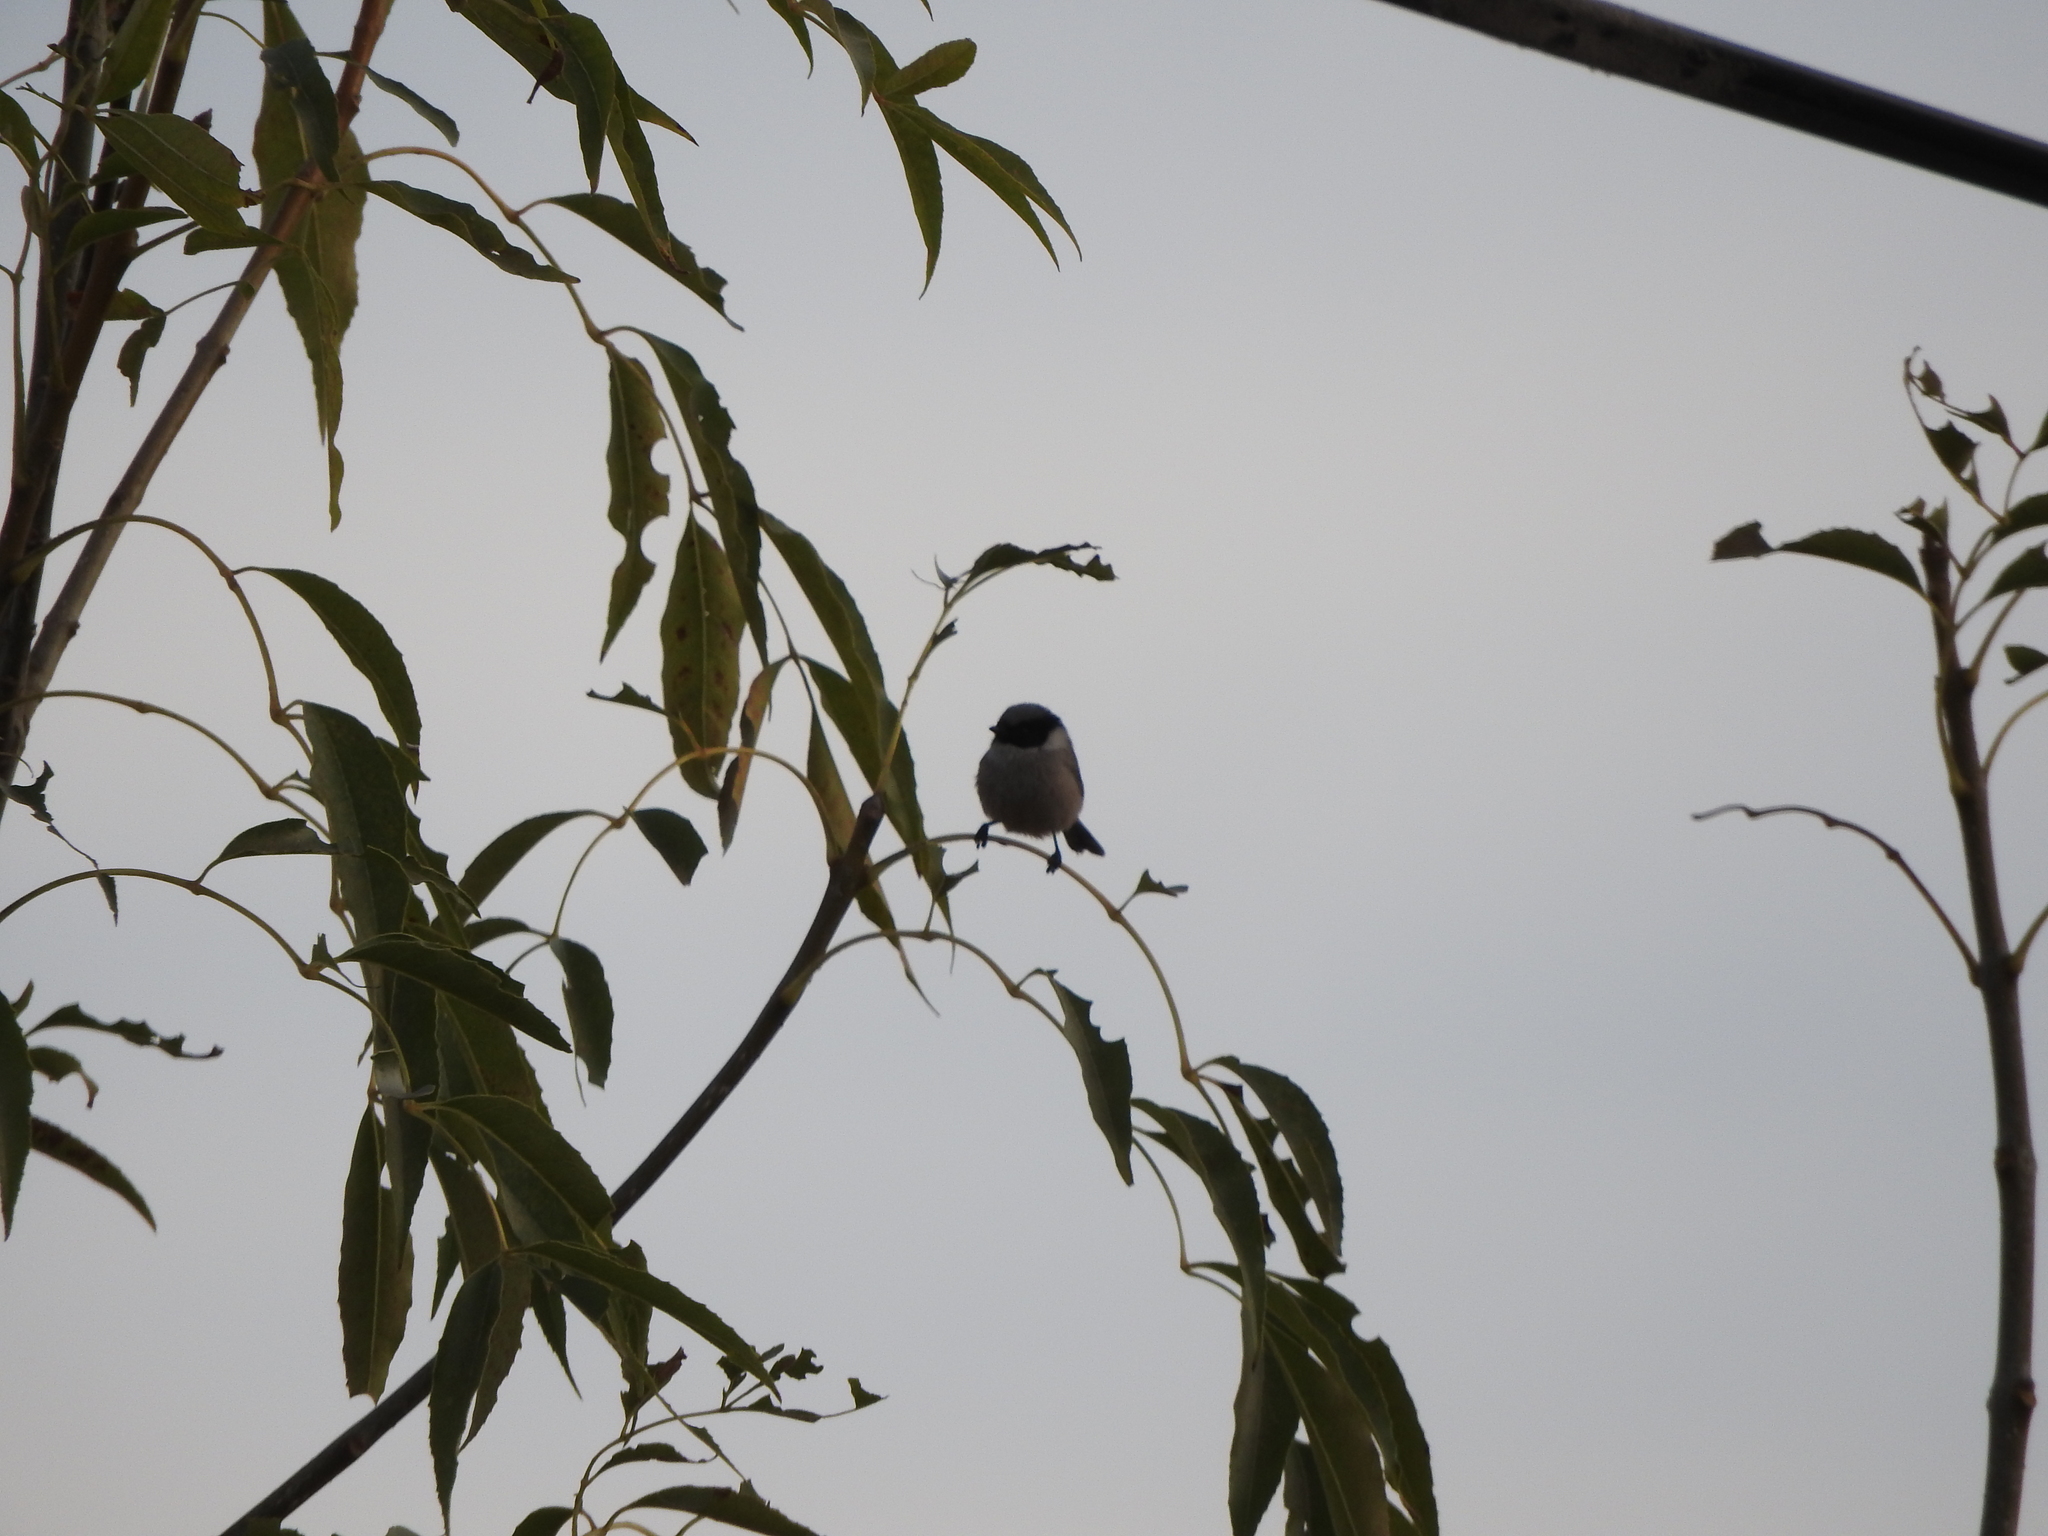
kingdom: Animalia
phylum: Chordata
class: Aves
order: Passeriformes
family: Aegithalidae
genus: Psaltriparus
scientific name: Psaltriparus minimus
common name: American bushtit
